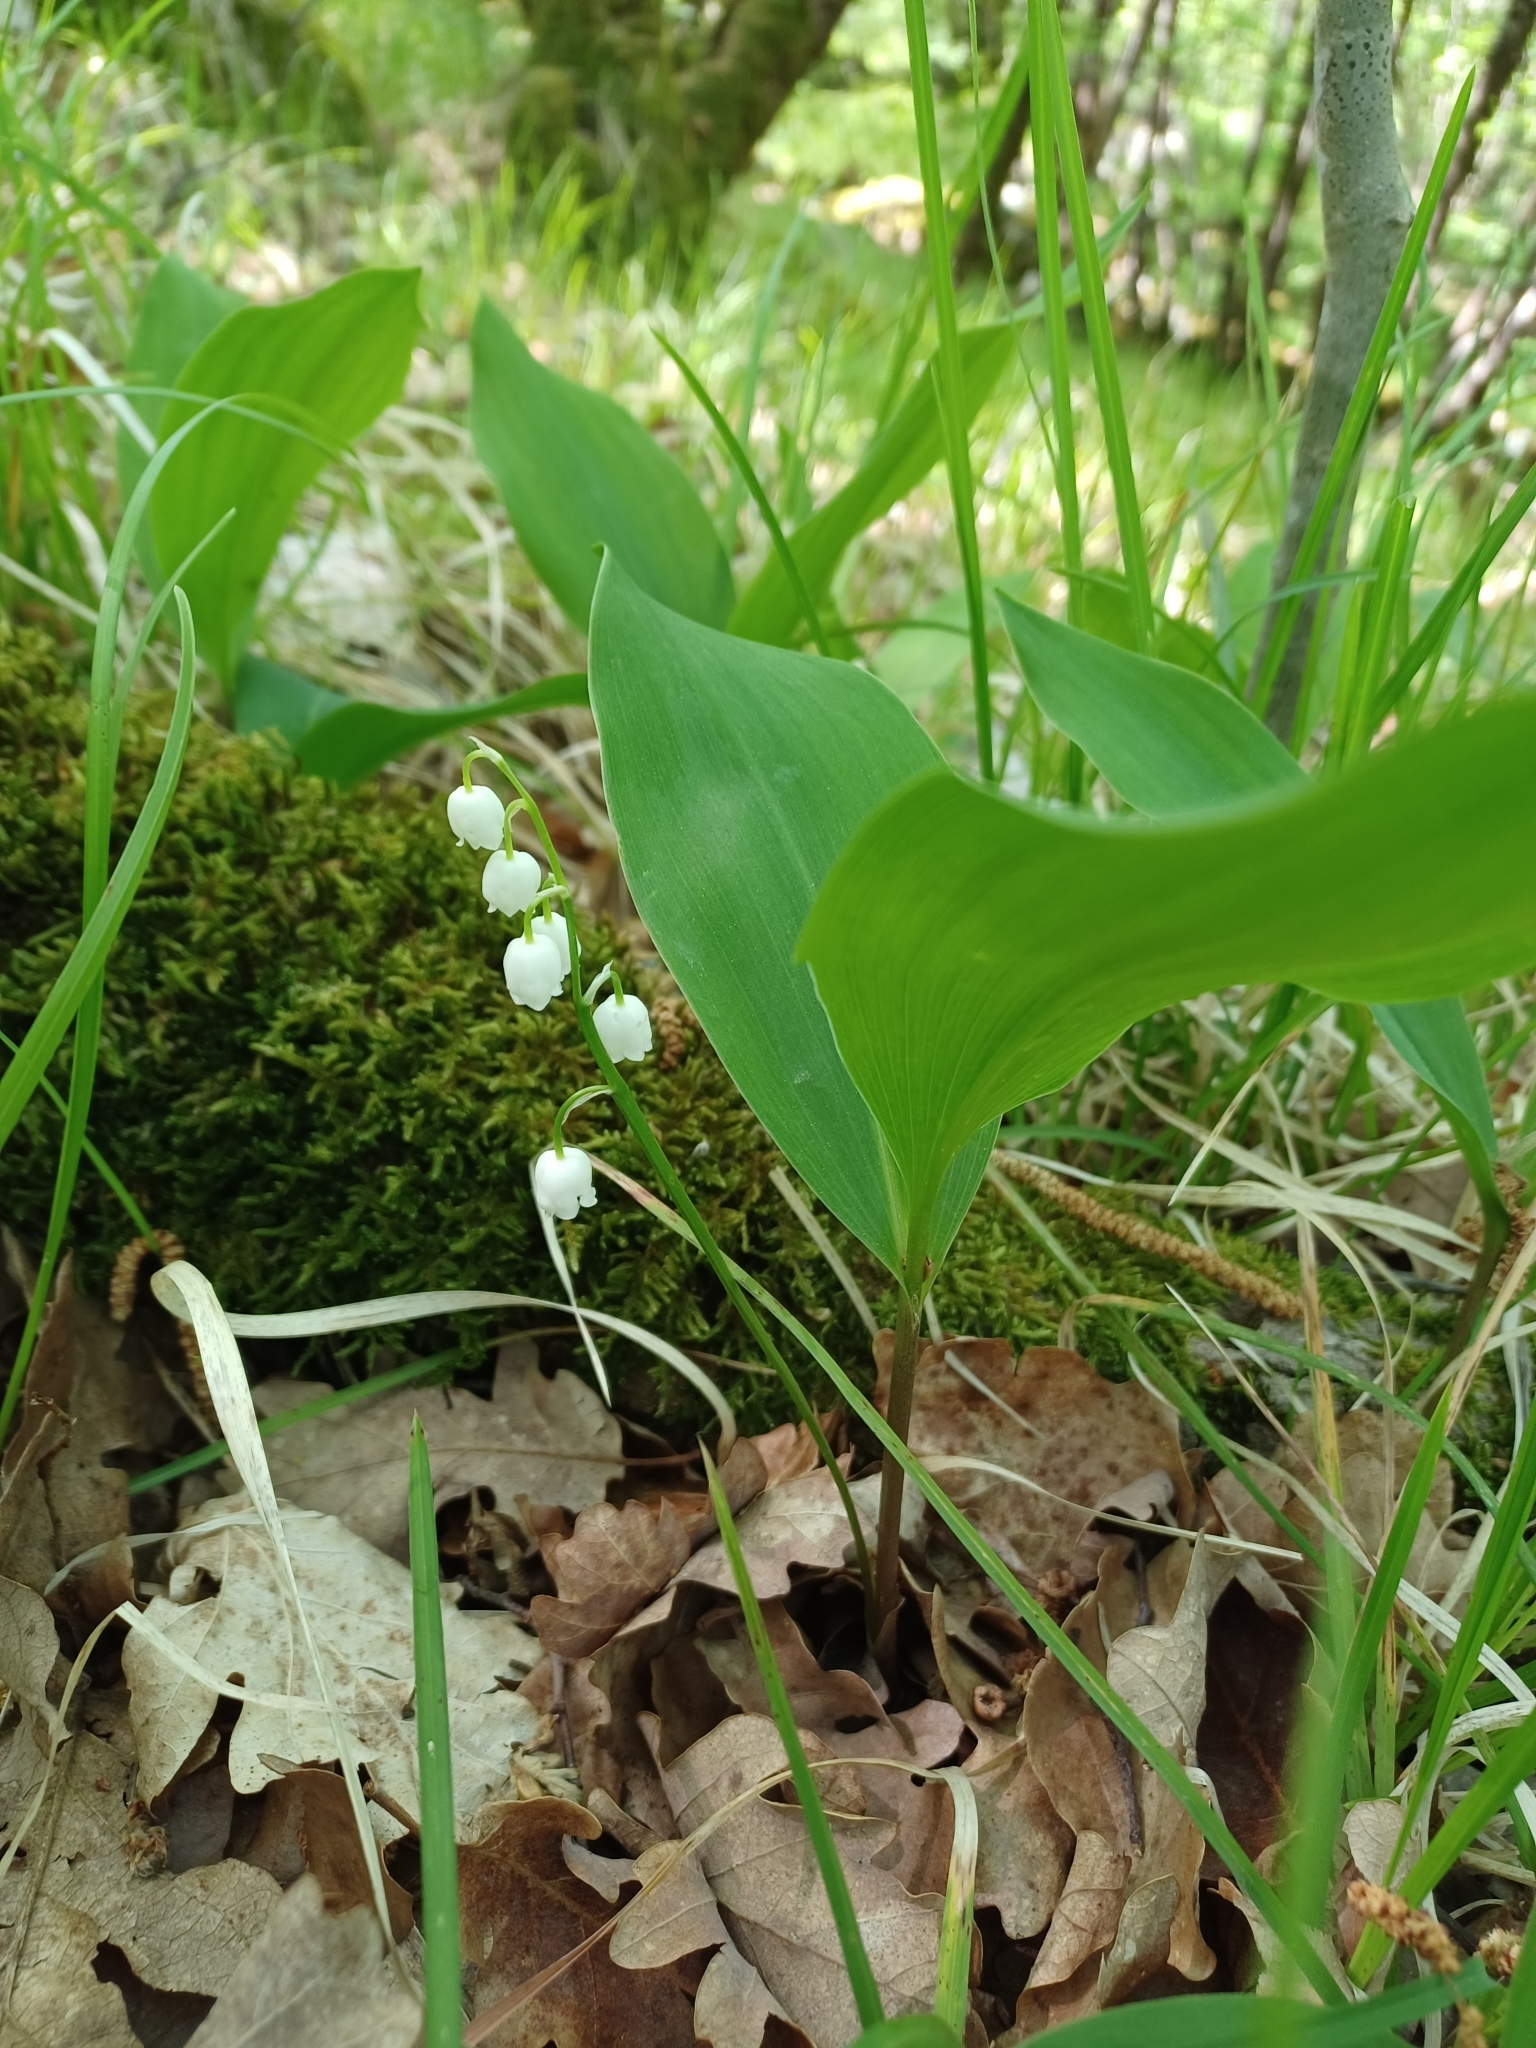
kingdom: Plantae
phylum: Tracheophyta
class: Liliopsida
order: Asparagales
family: Asparagaceae
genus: Convallaria
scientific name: Convallaria majalis
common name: Lily-of-the-valley
